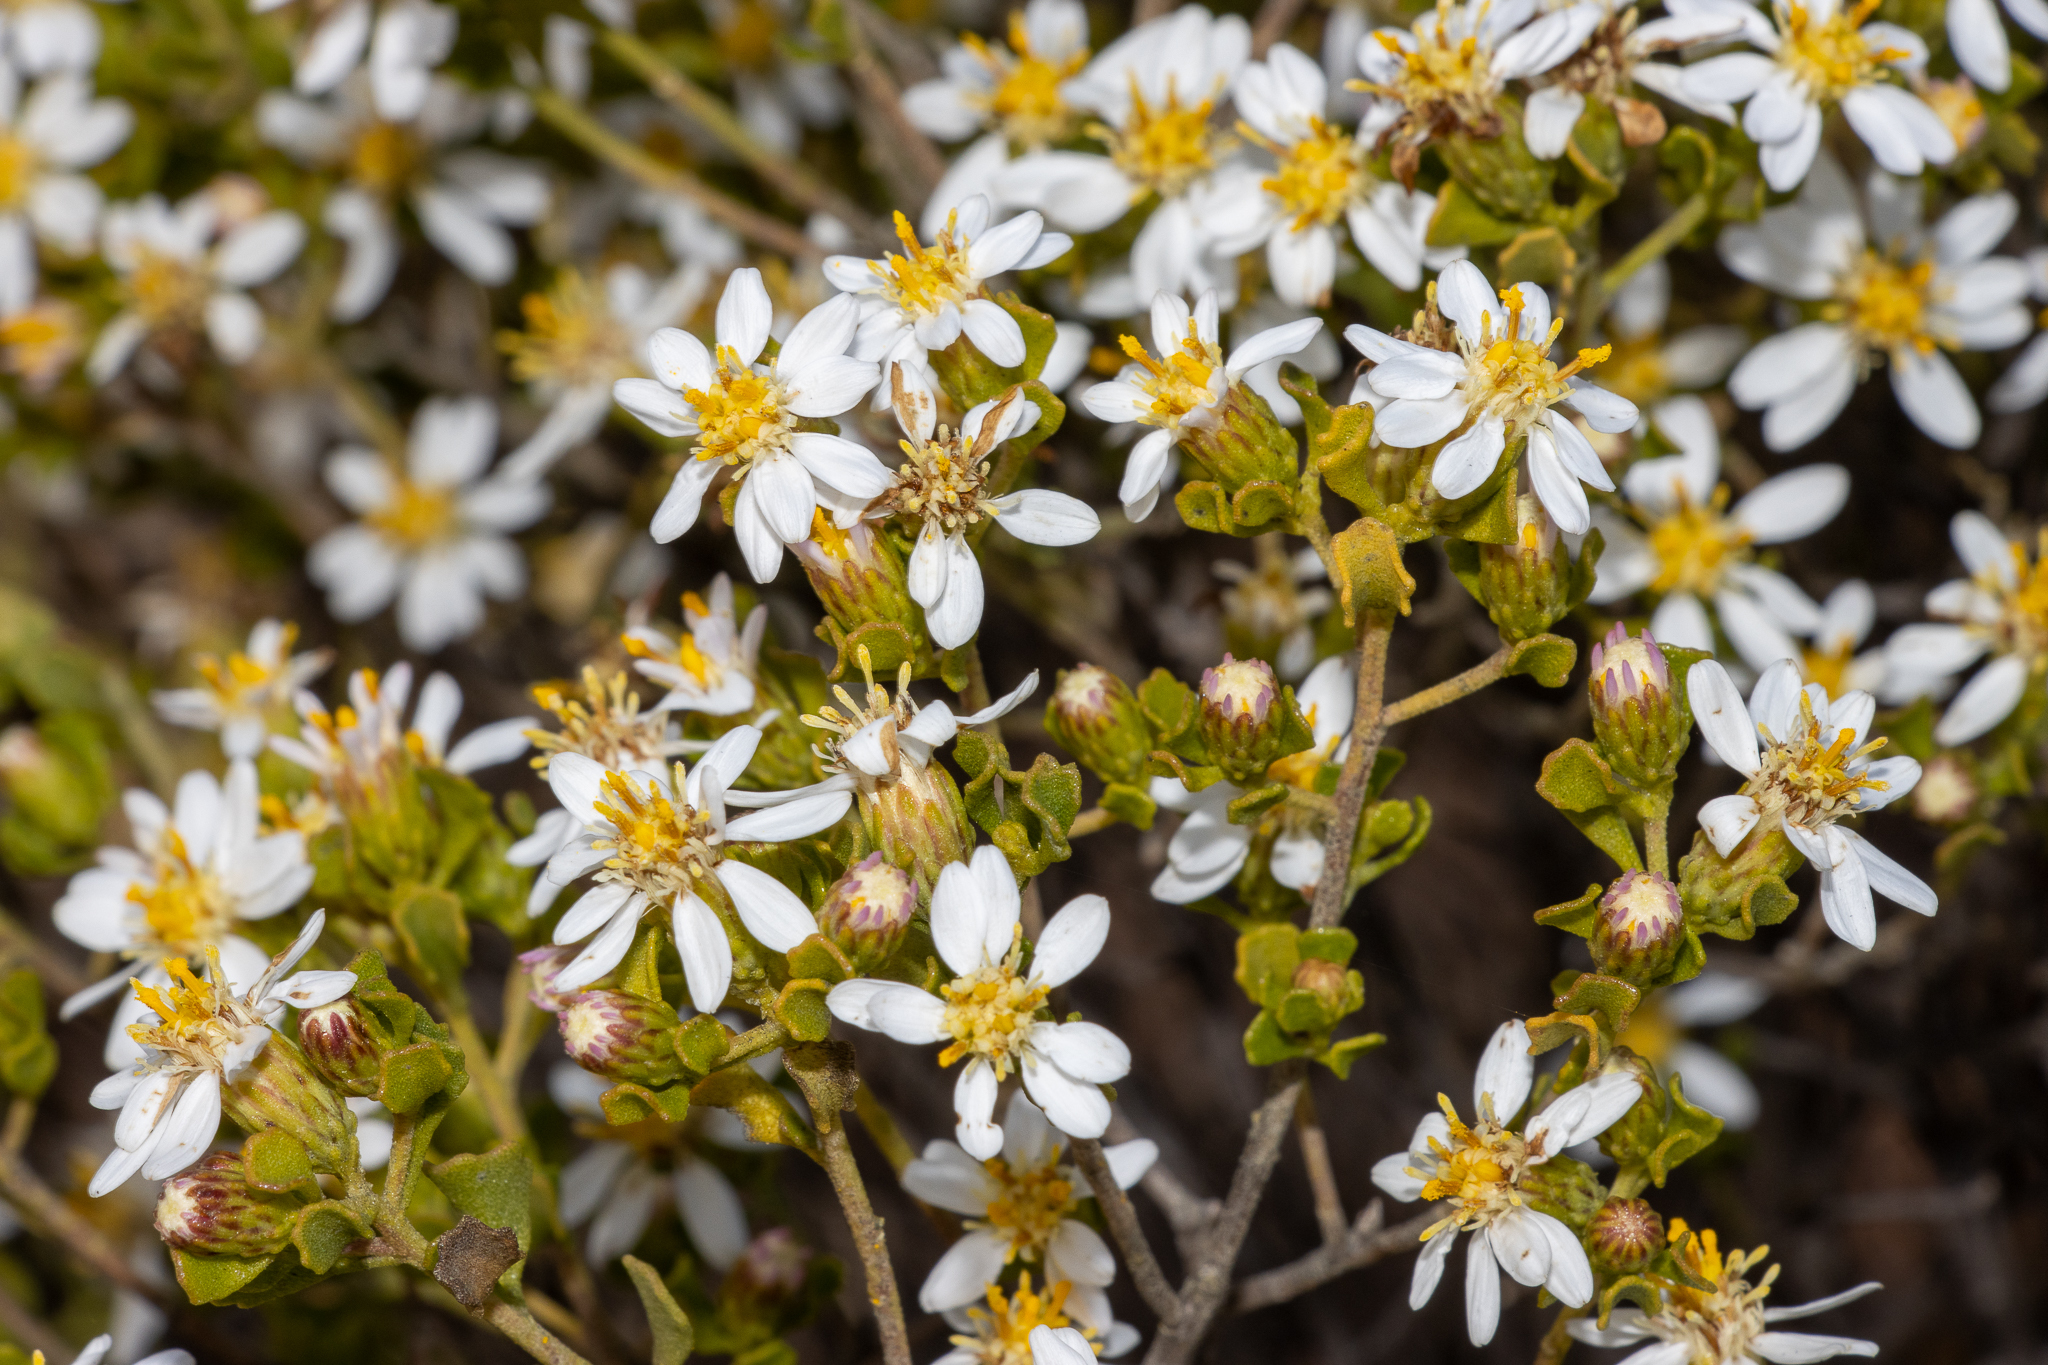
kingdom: Plantae
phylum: Tracheophyta
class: Magnoliopsida
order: Asterales
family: Asteraceae
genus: Walsholaria
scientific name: Walsholaria muelleri
